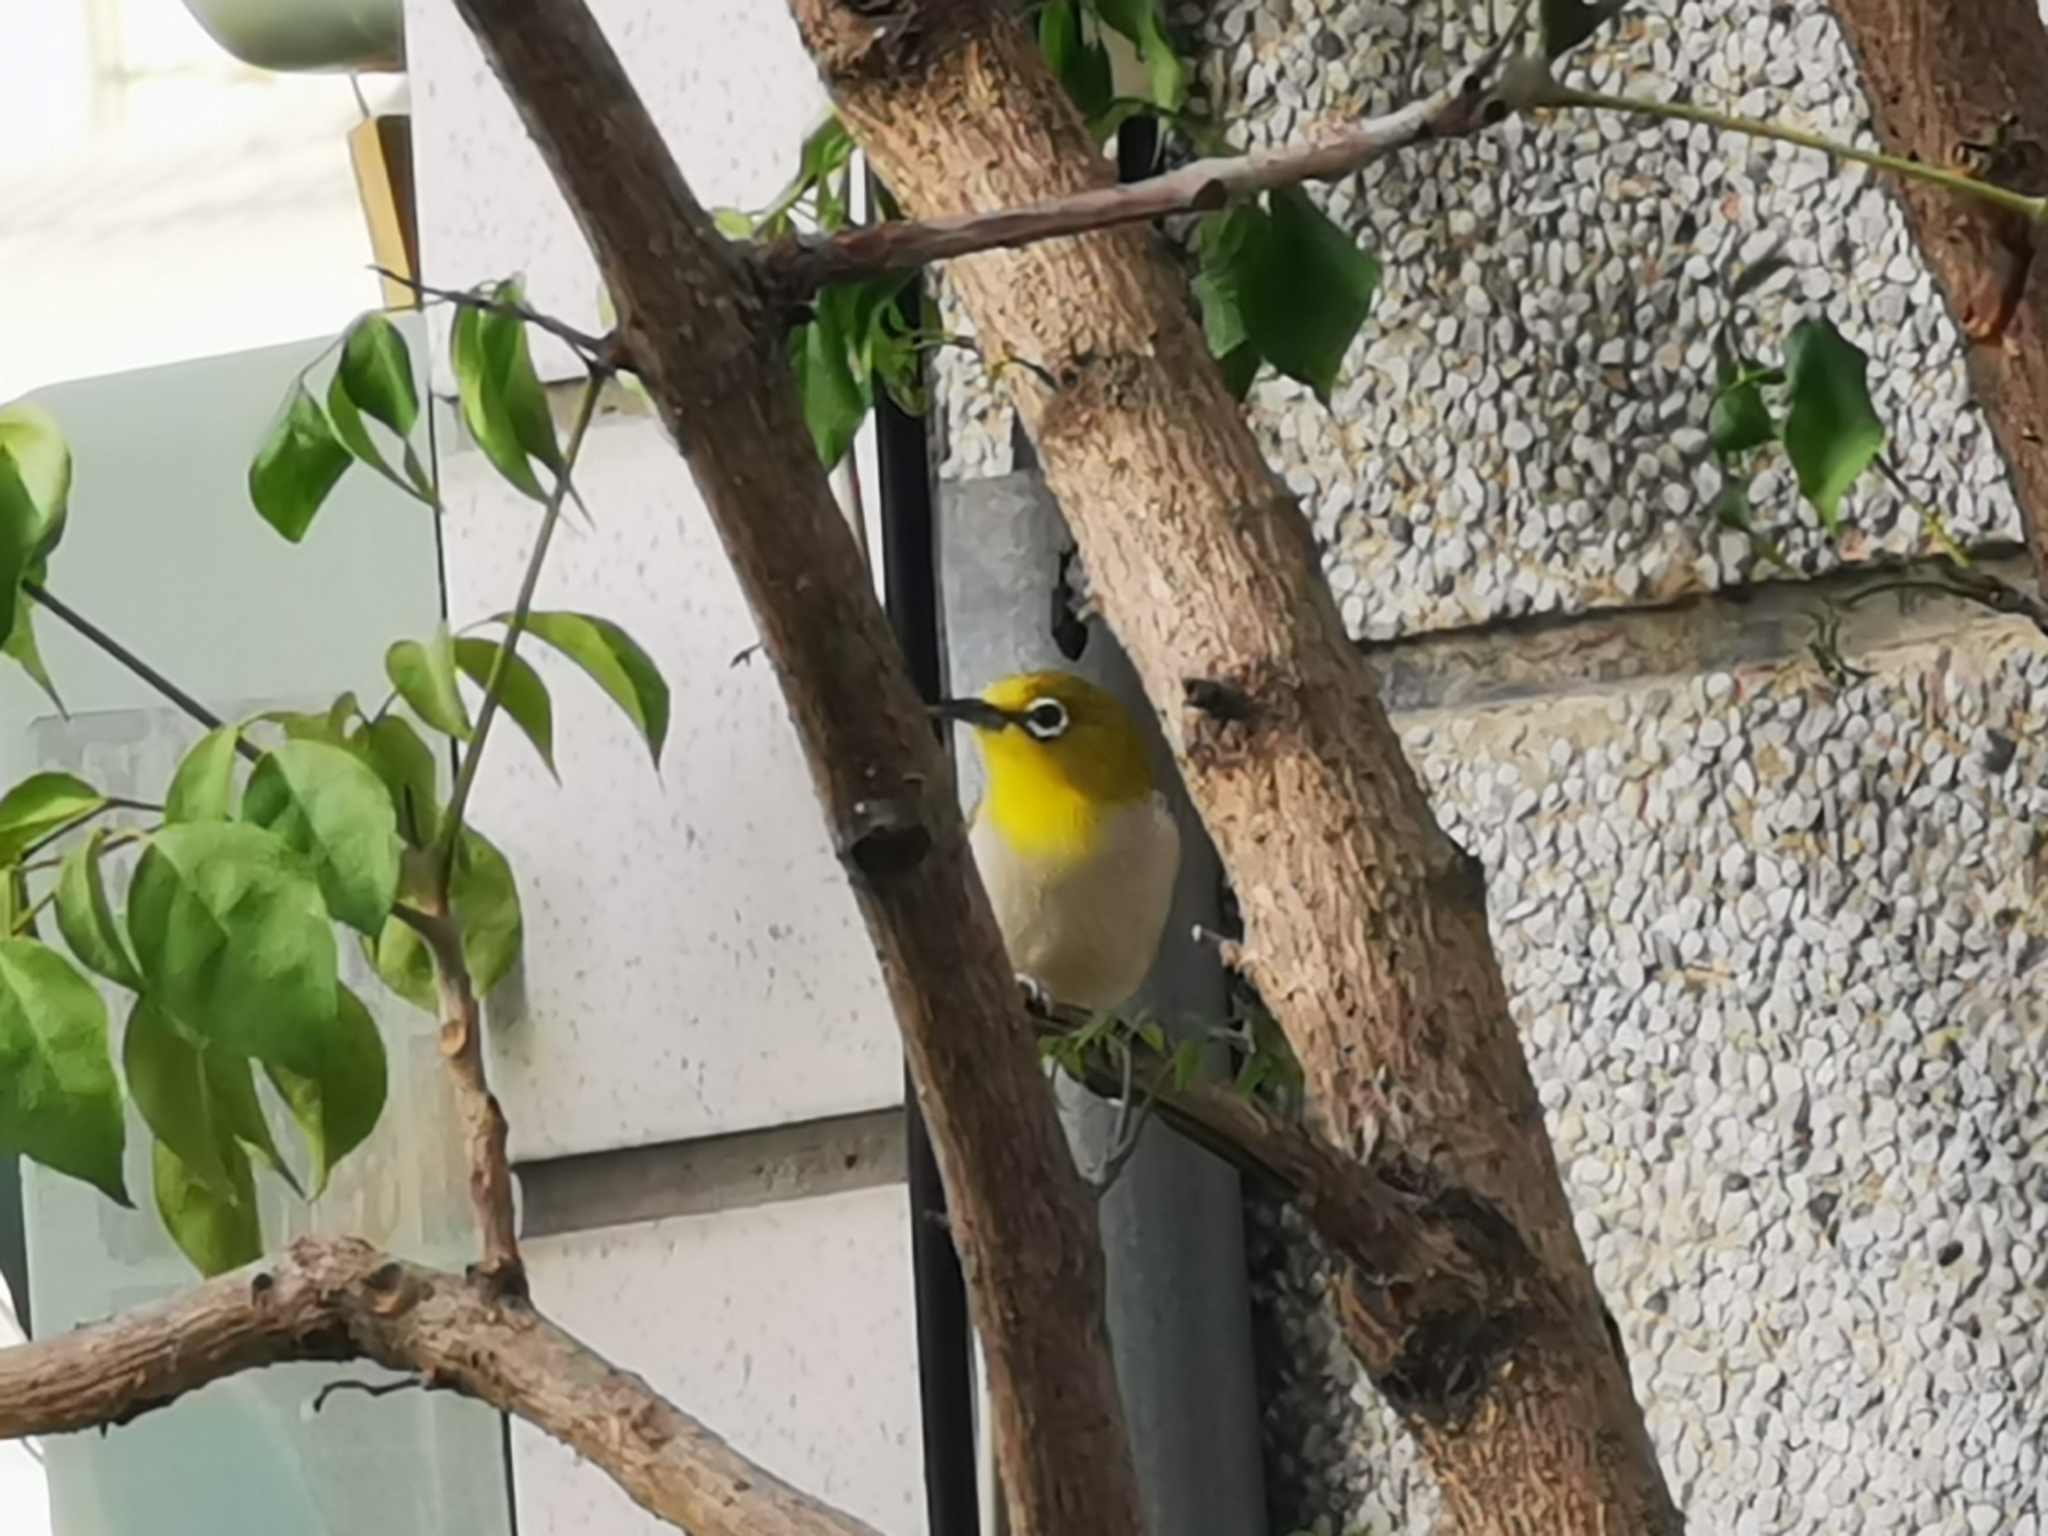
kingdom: Animalia
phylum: Chordata
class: Aves
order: Passeriformes
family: Zosteropidae
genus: Zosterops
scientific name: Zosterops simplex
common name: Swinhoe's white-eye
